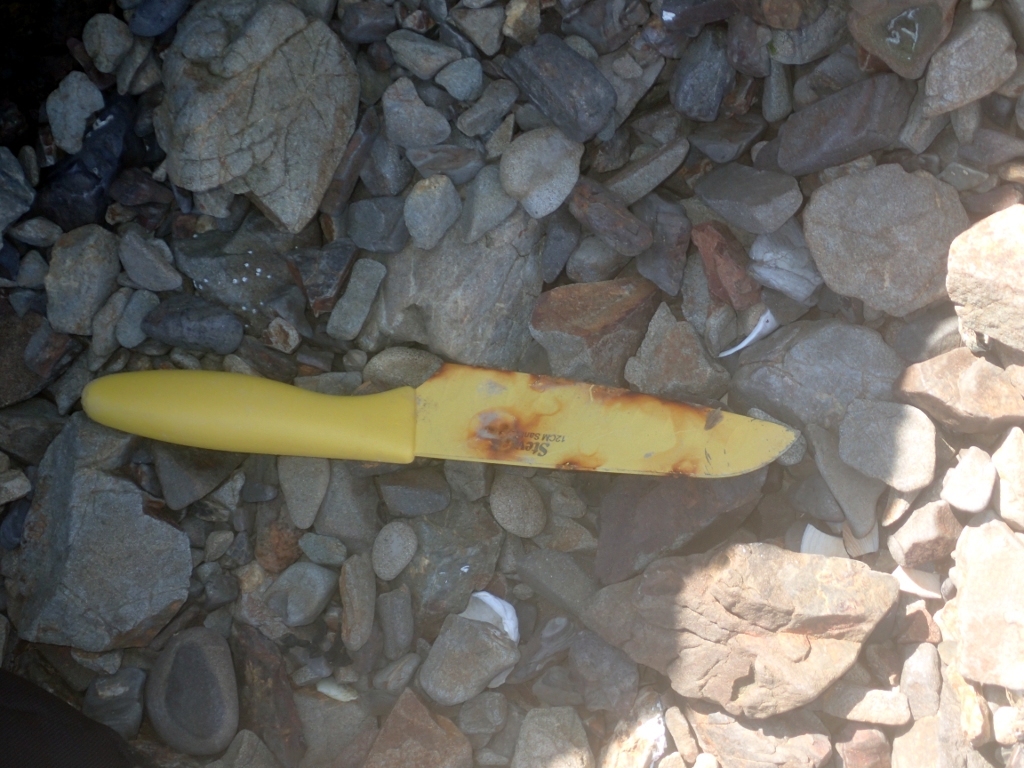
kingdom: Animalia
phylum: Echinodermata
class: Echinoidea
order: Camarodonta
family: Echinometridae
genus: Evechinus
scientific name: Evechinus chloroticus
